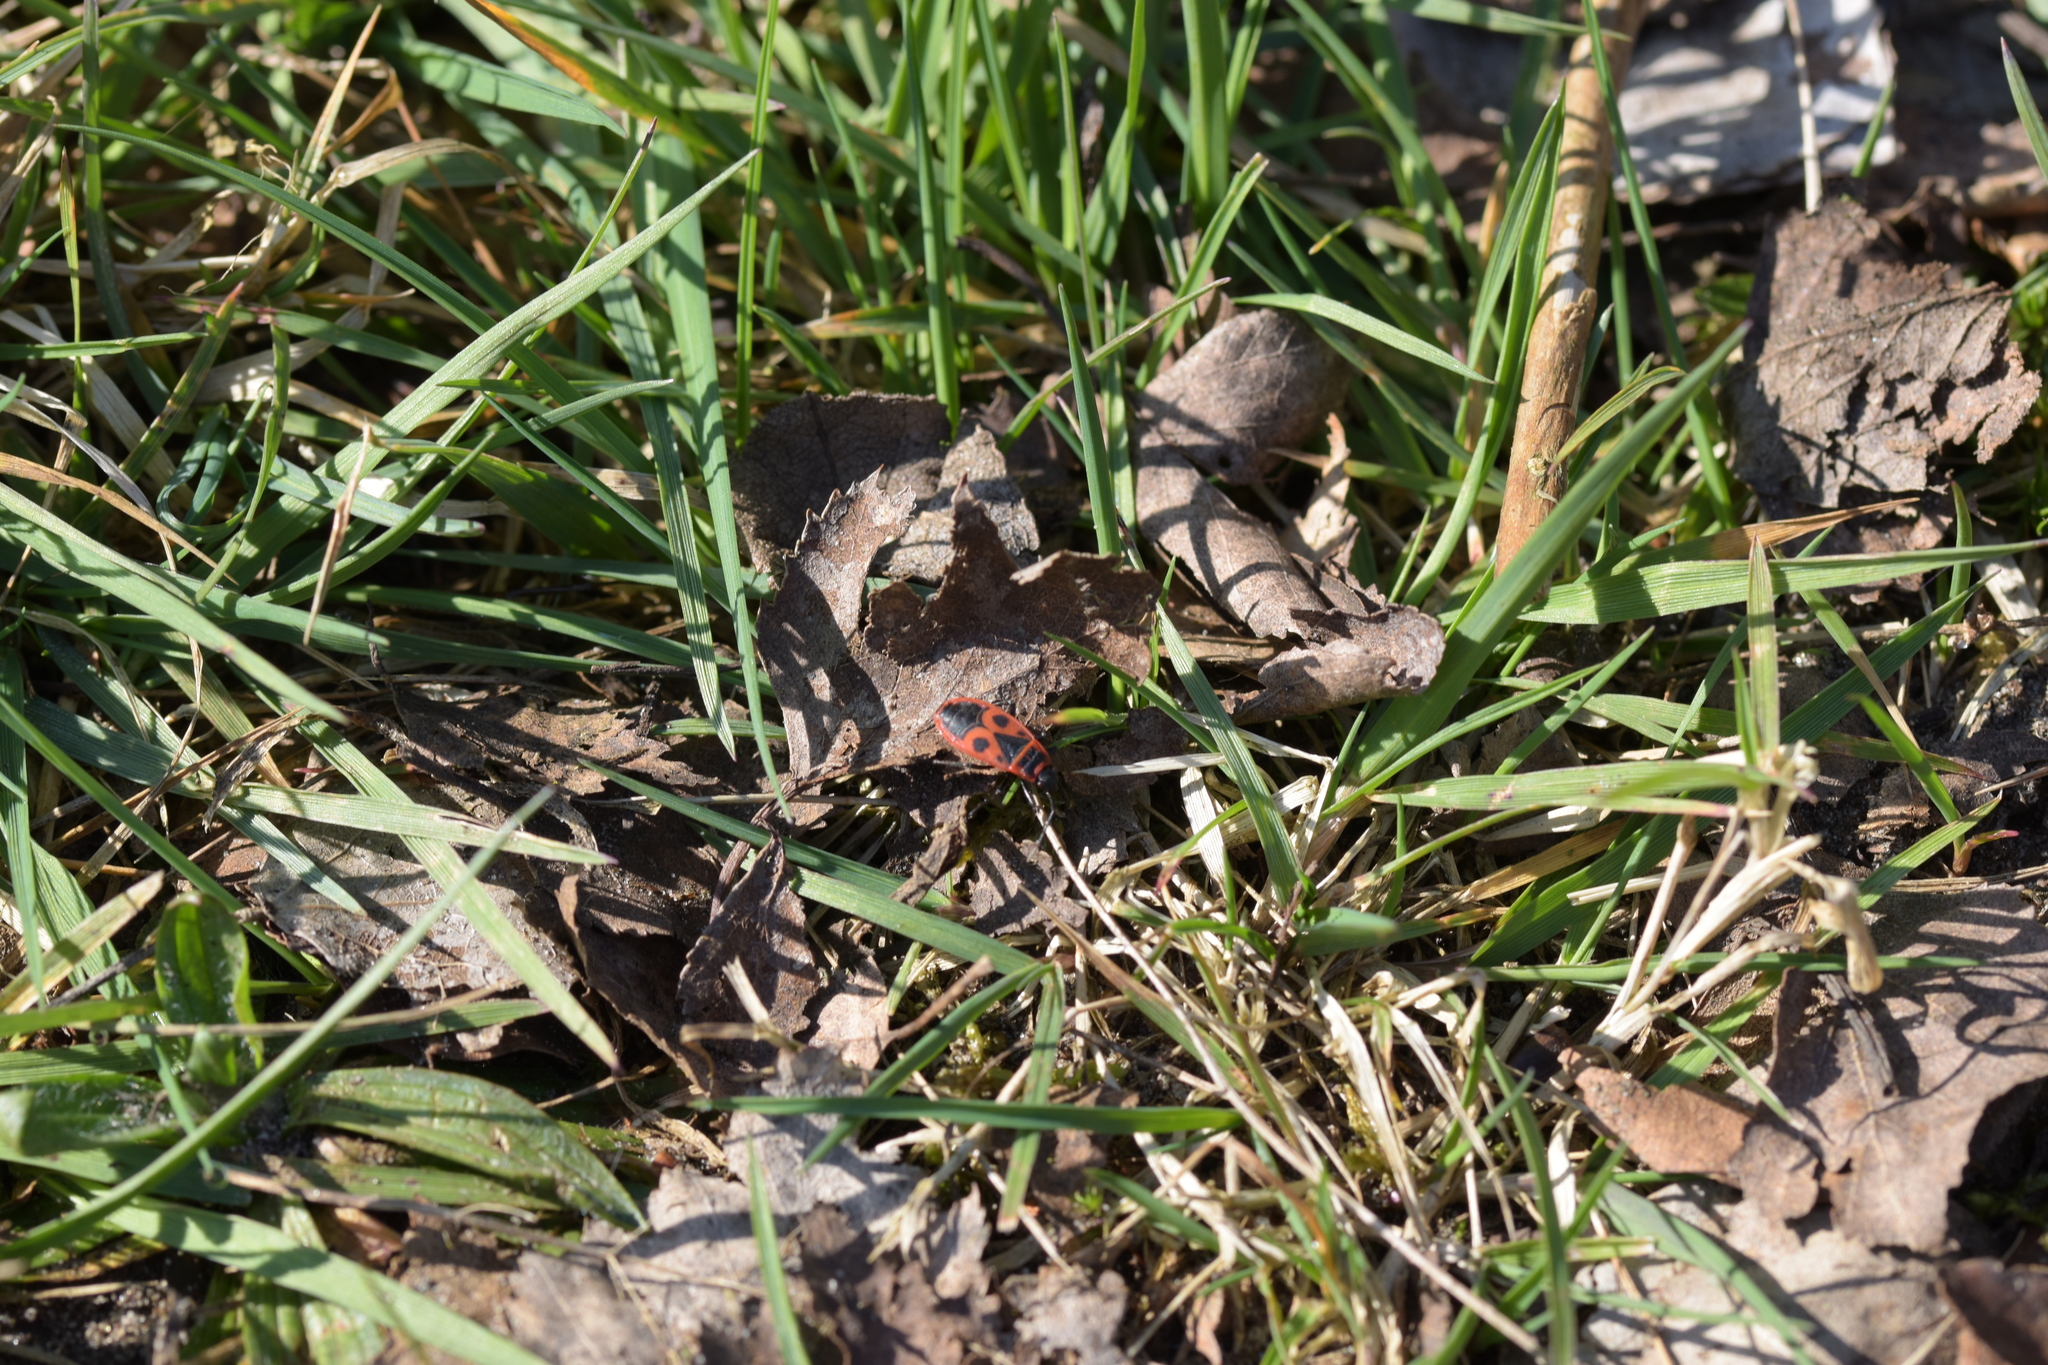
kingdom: Animalia
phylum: Arthropoda
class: Insecta
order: Hemiptera
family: Pyrrhocoridae
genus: Pyrrhocoris
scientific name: Pyrrhocoris apterus
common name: Firebug
